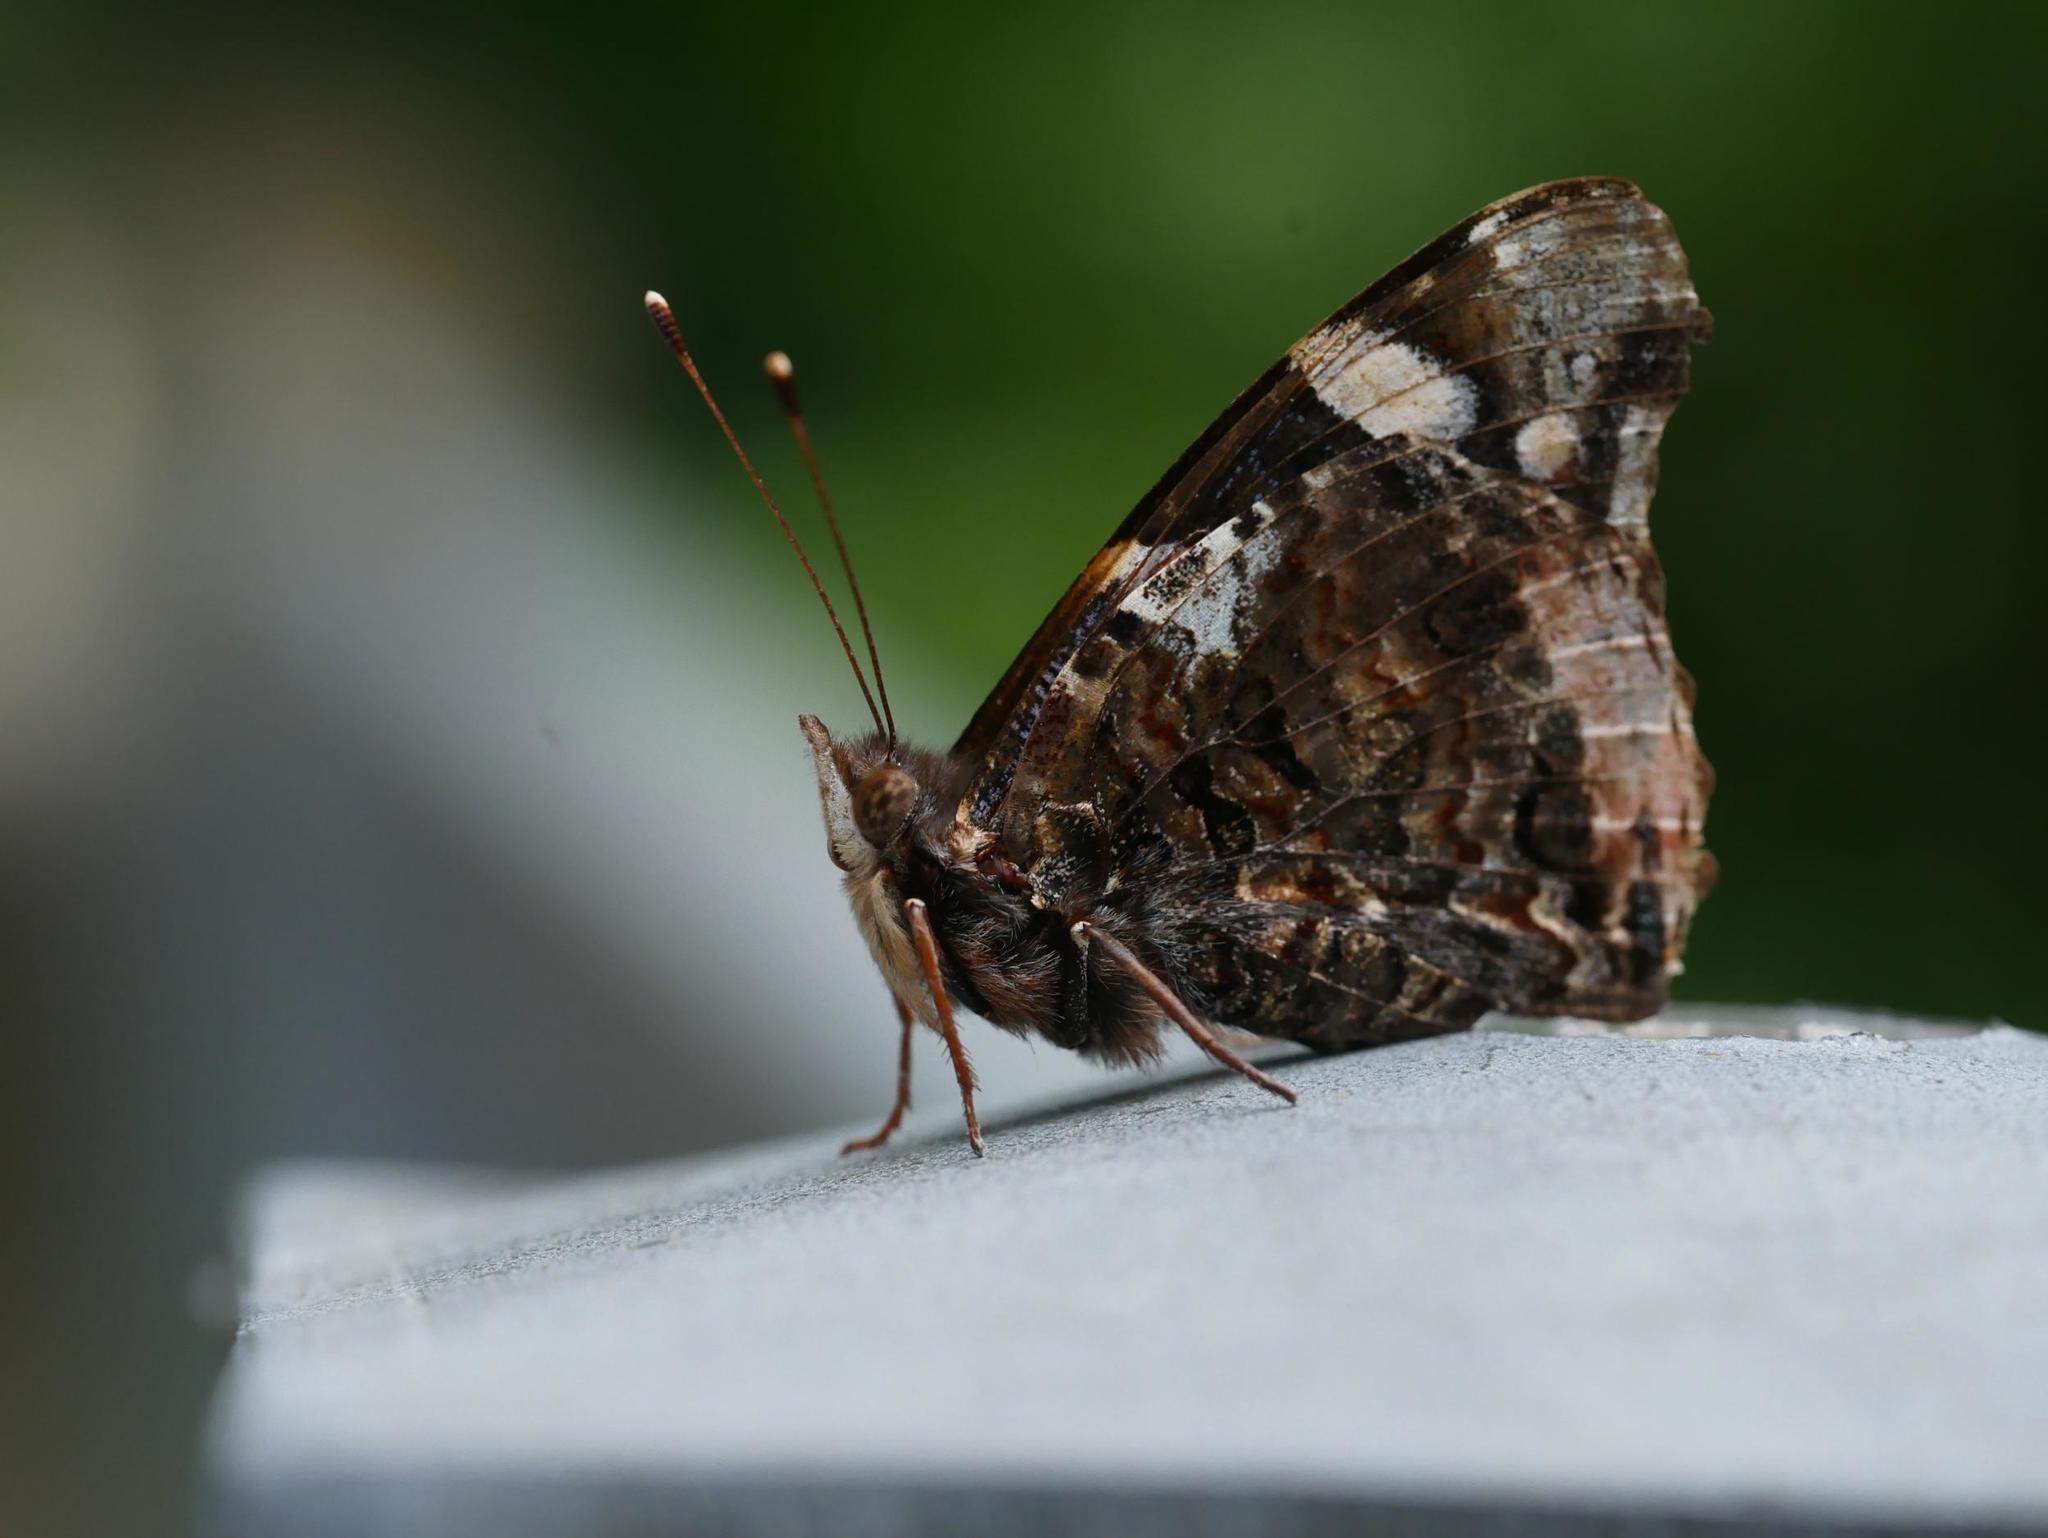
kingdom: Animalia
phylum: Arthropoda
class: Insecta
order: Lepidoptera
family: Nymphalidae
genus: Vanessa
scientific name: Vanessa atalanta
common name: Red admiral
